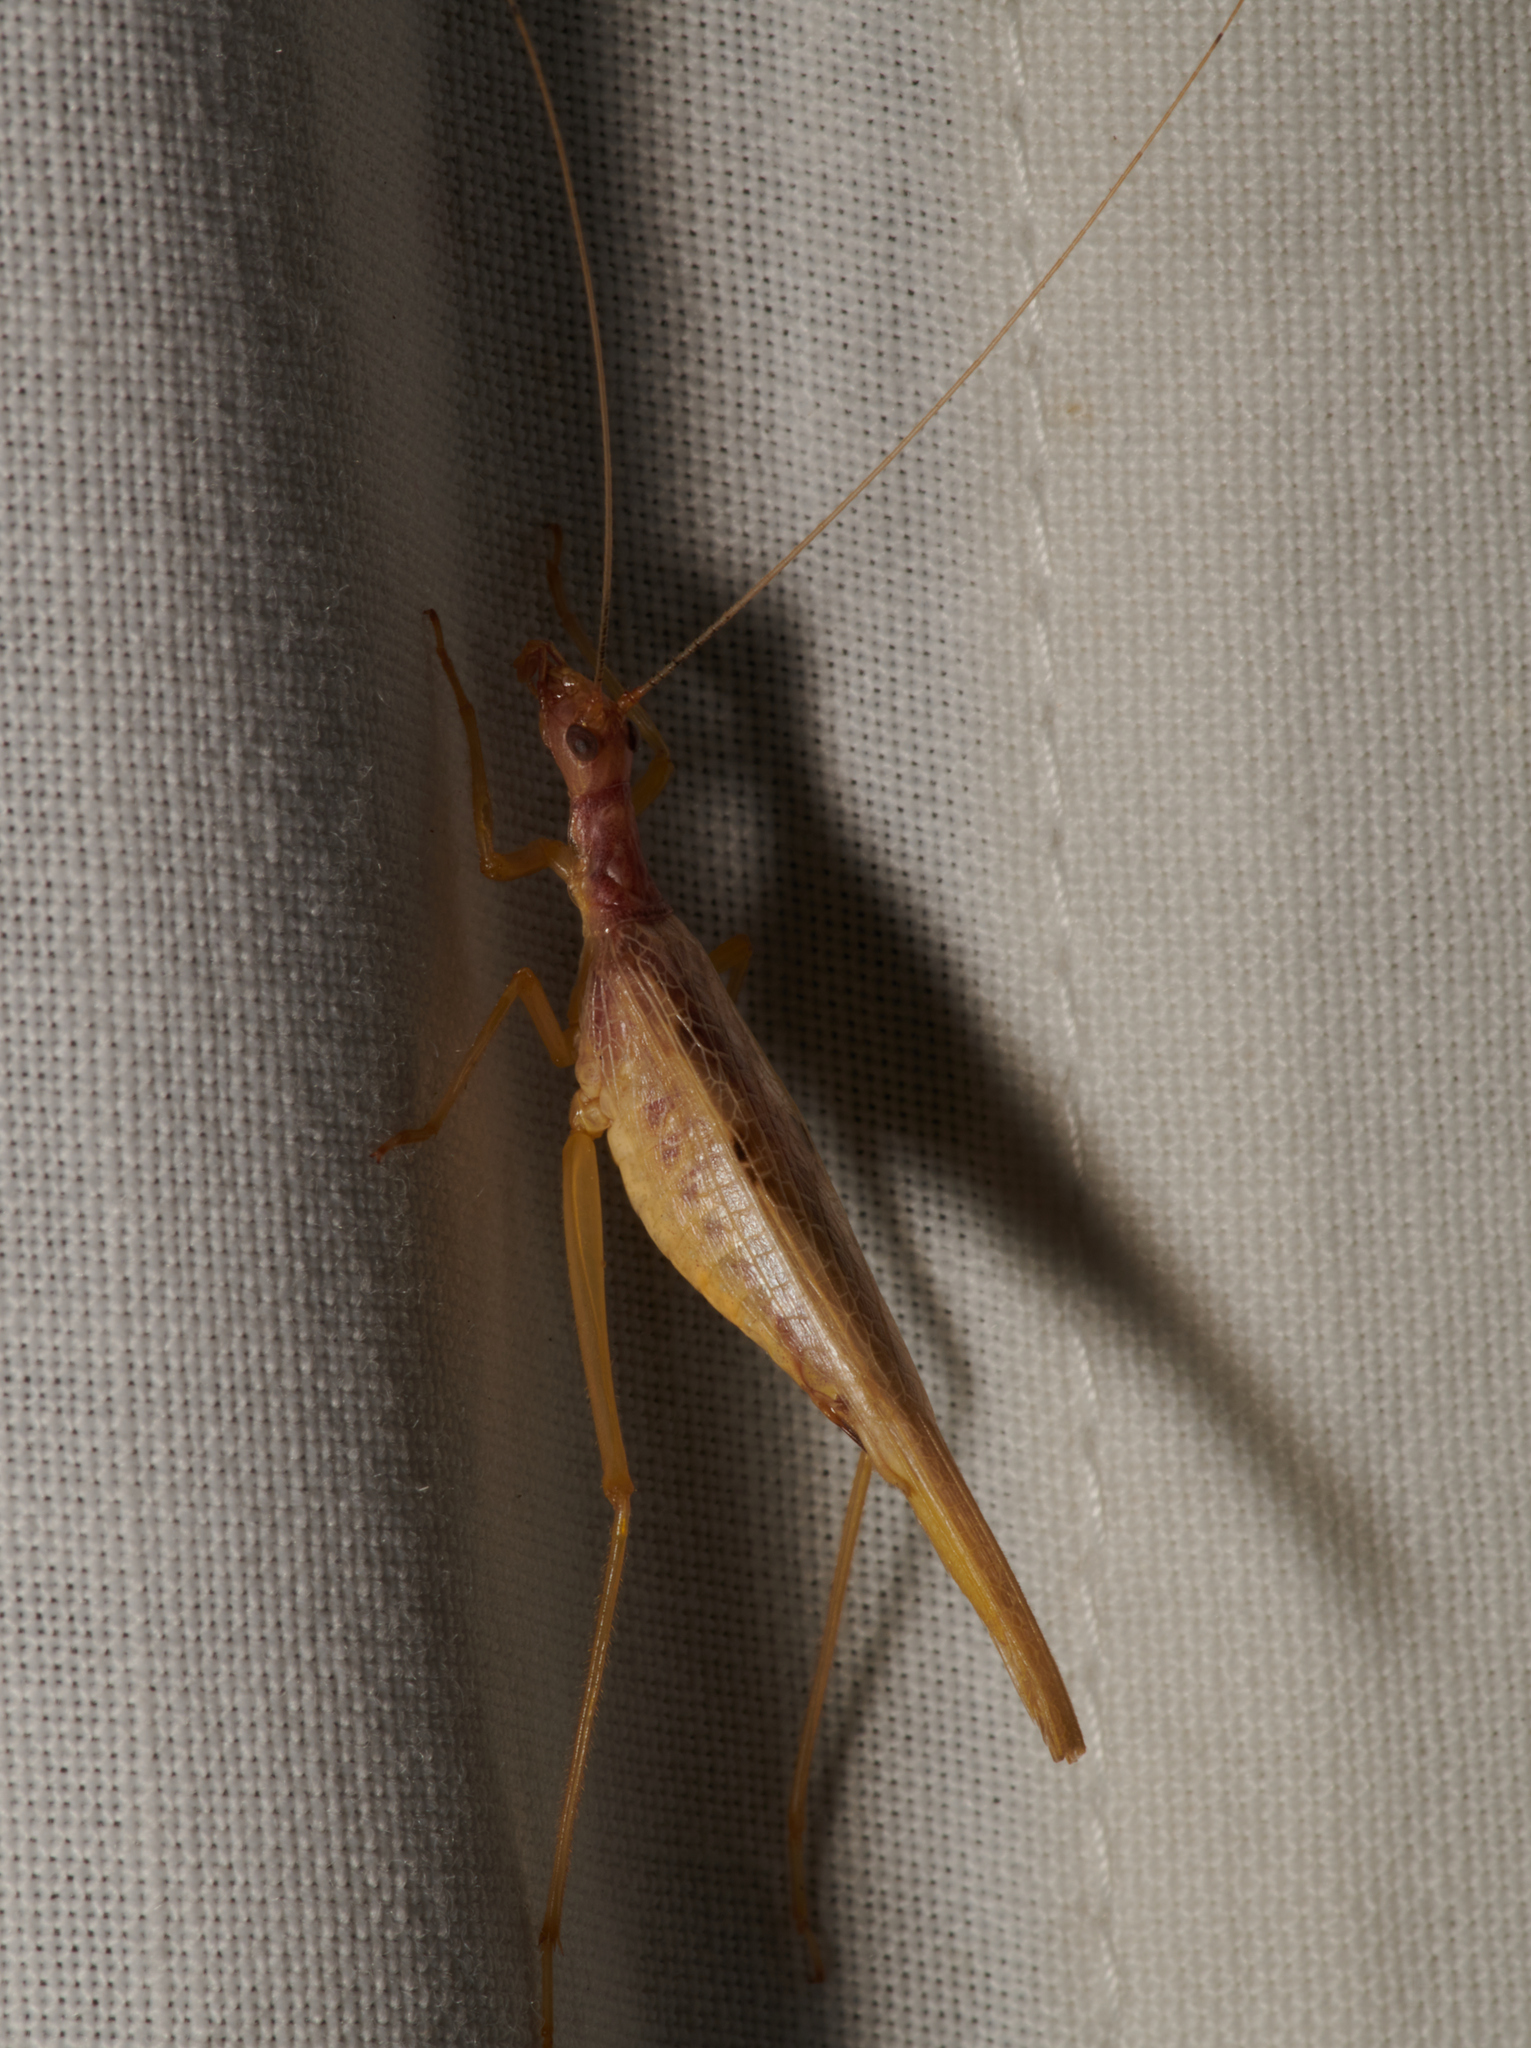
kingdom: Animalia
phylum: Arthropoda
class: Insecta
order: Orthoptera
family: Gryllidae
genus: Neoxabea
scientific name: Neoxabea bipunctata
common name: Two-spotted tree cricket
